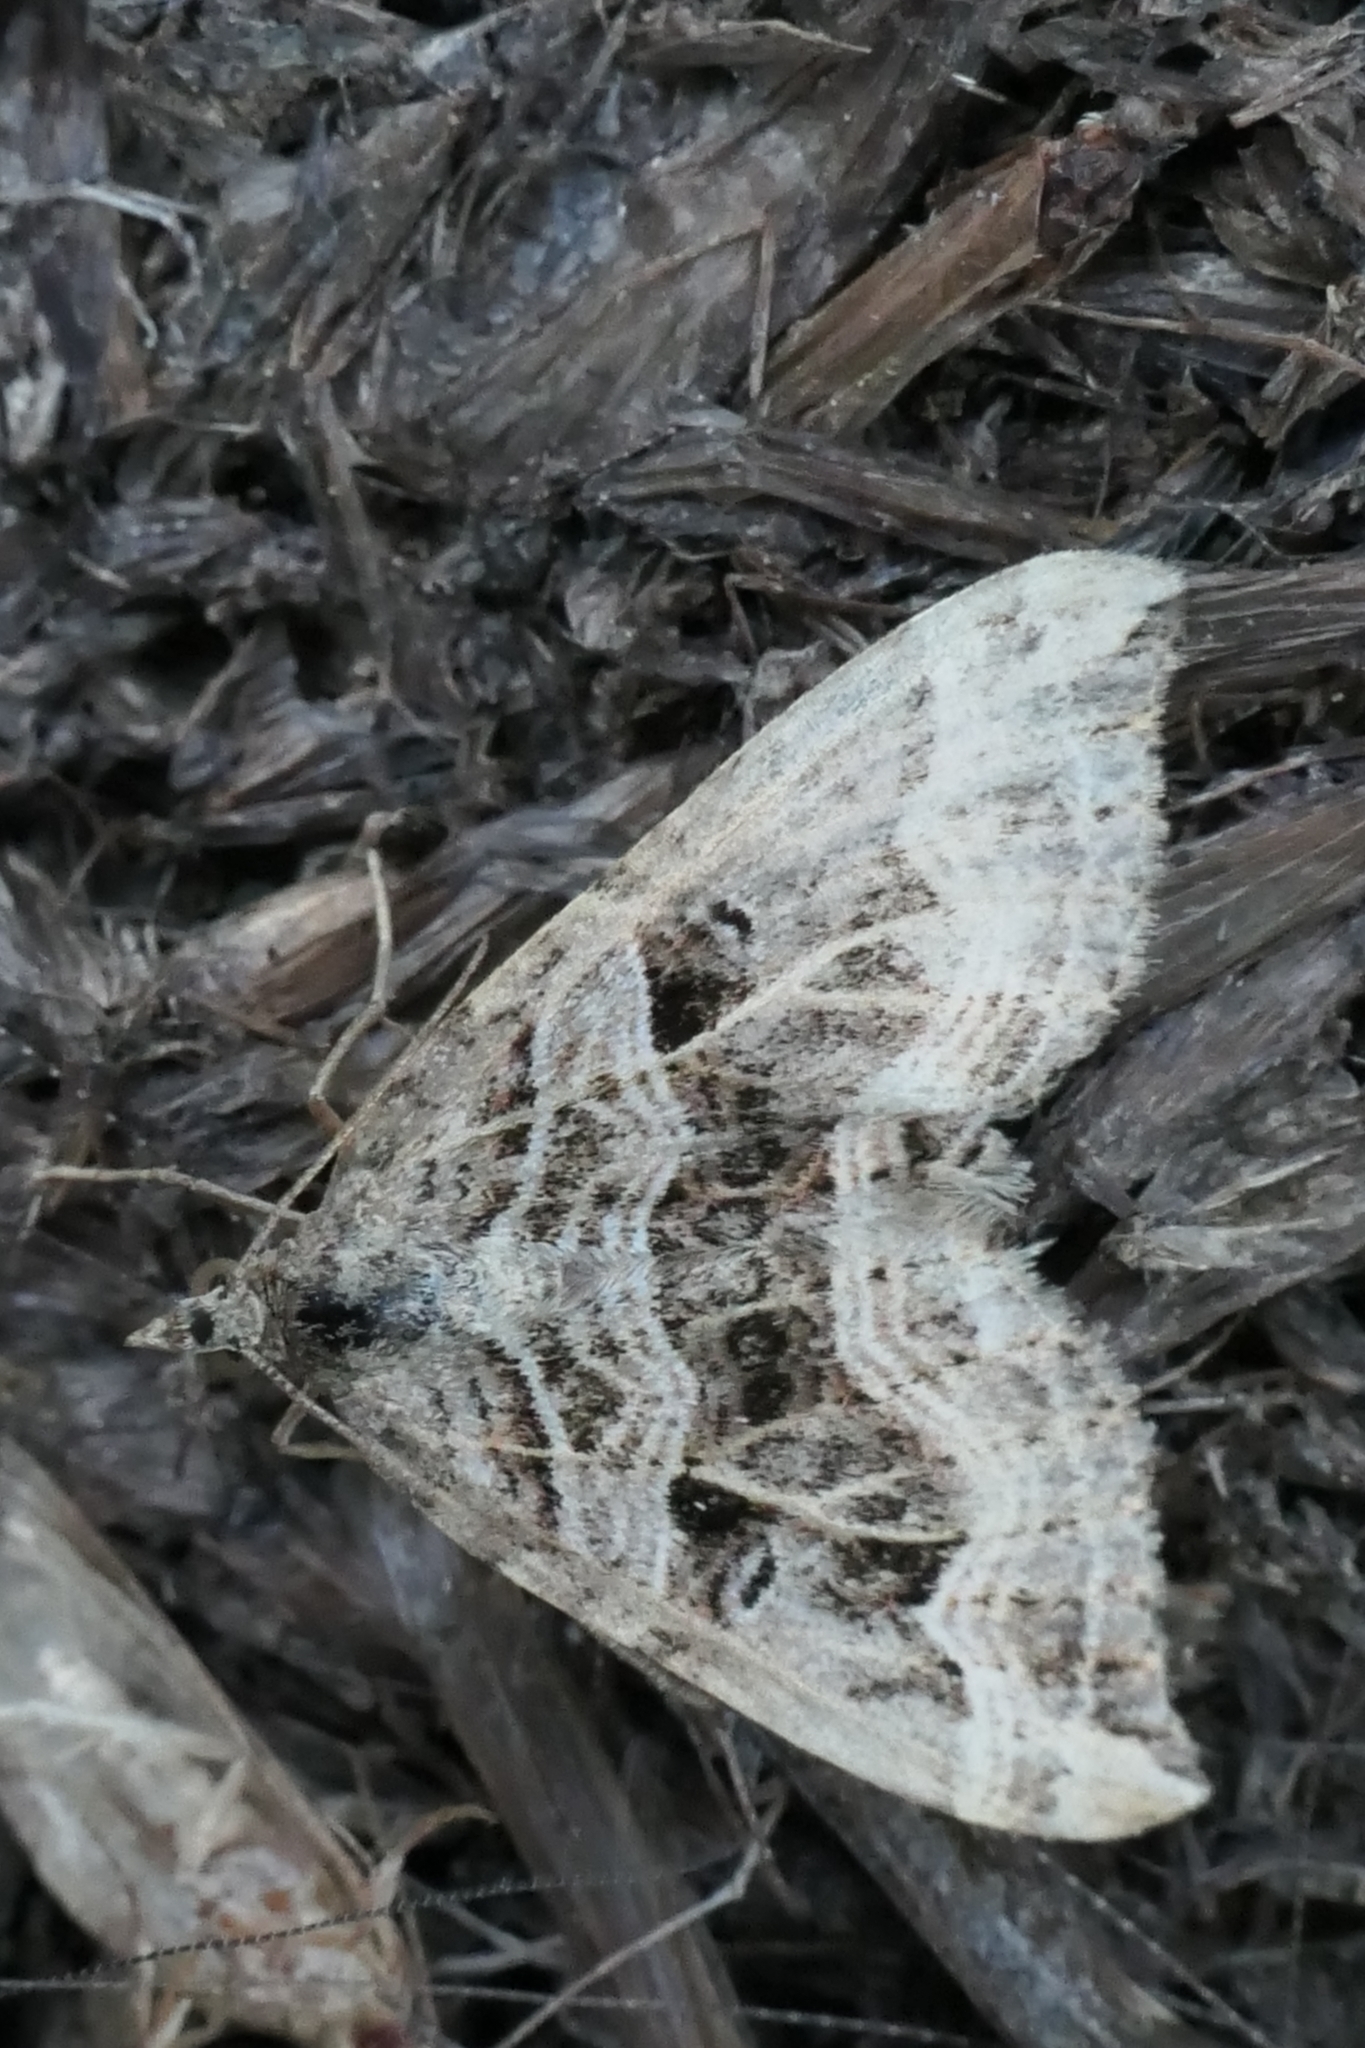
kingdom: Animalia
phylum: Arthropoda
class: Insecta
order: Lepidoptera
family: Geometridae
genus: Xanthorhoe
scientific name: Xanthorhoe semifissata
